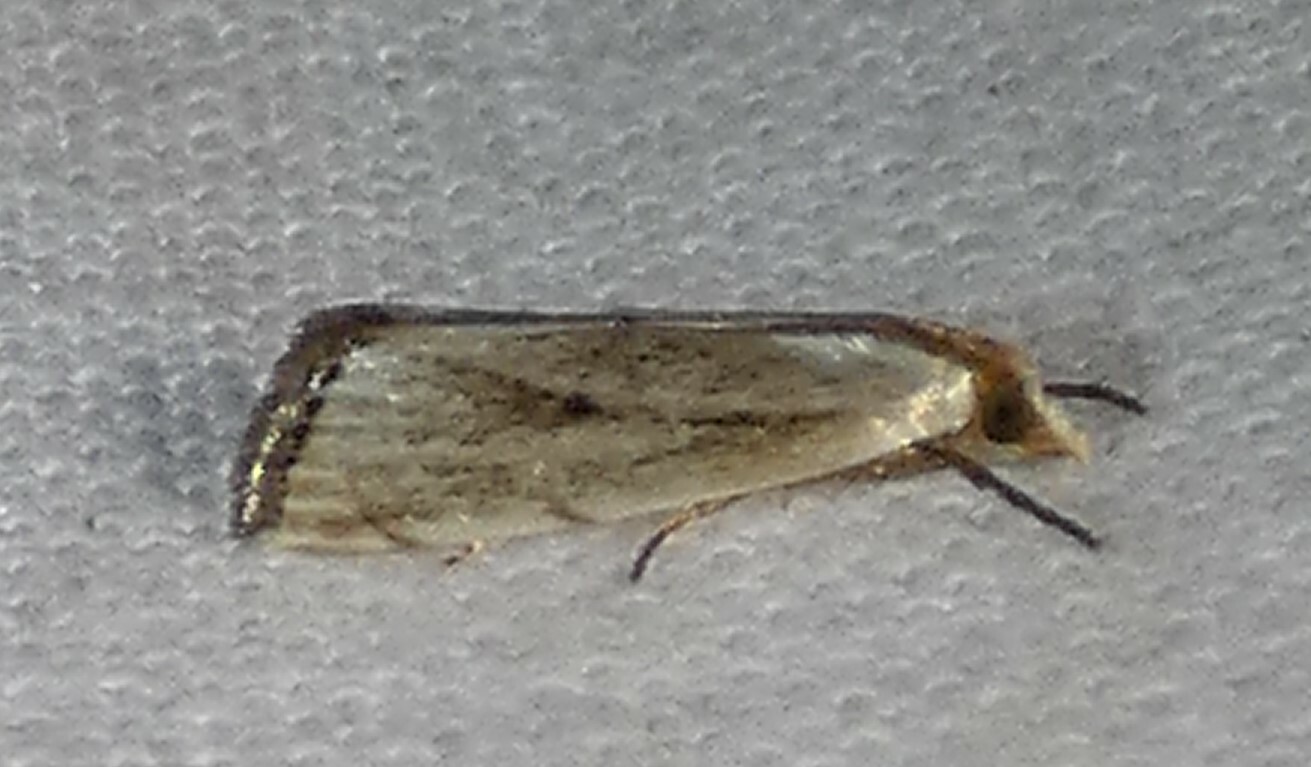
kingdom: Animalia
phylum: Arthropoda
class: Insecta
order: Lepidoptera
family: Crambidae
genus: Argyria
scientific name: Argyria pusillalis
